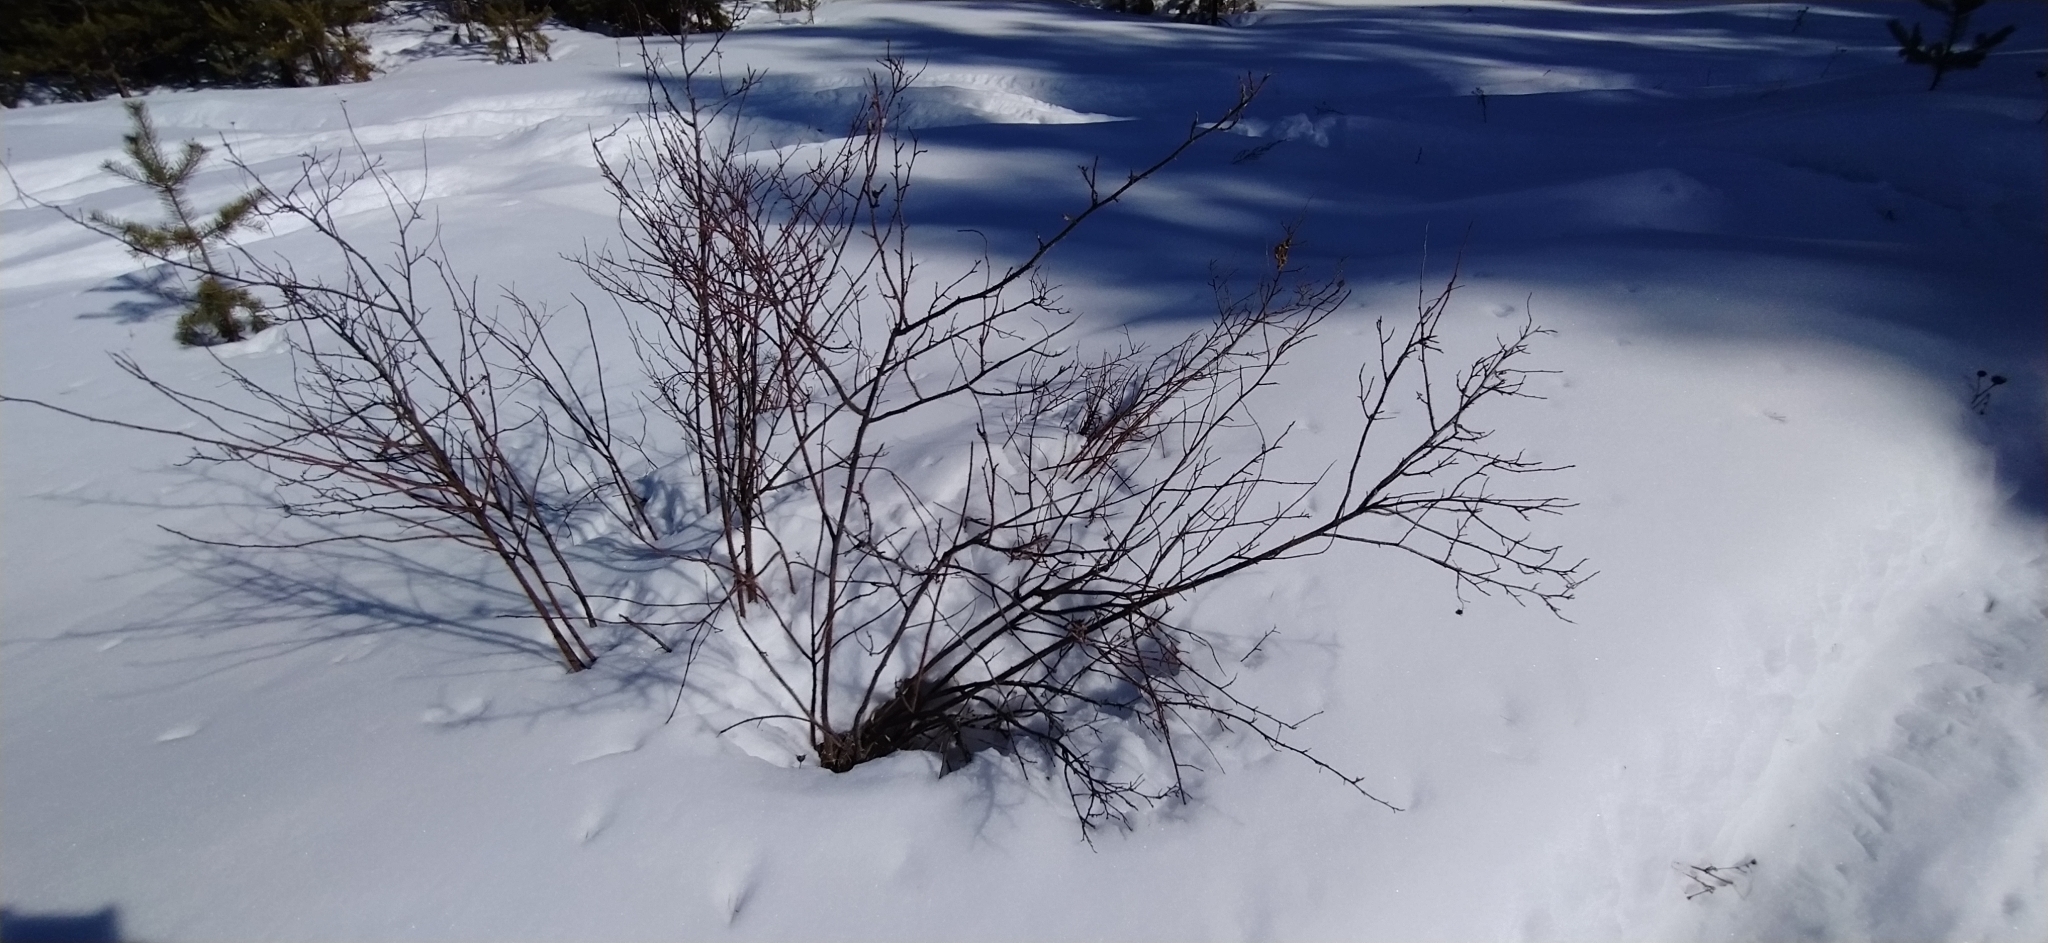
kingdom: Plantae
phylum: Tracheophyta
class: Magnoliopsida
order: Rosales
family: Rosaceae
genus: Rosa
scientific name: Rosa acicularis
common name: Prickly rose
